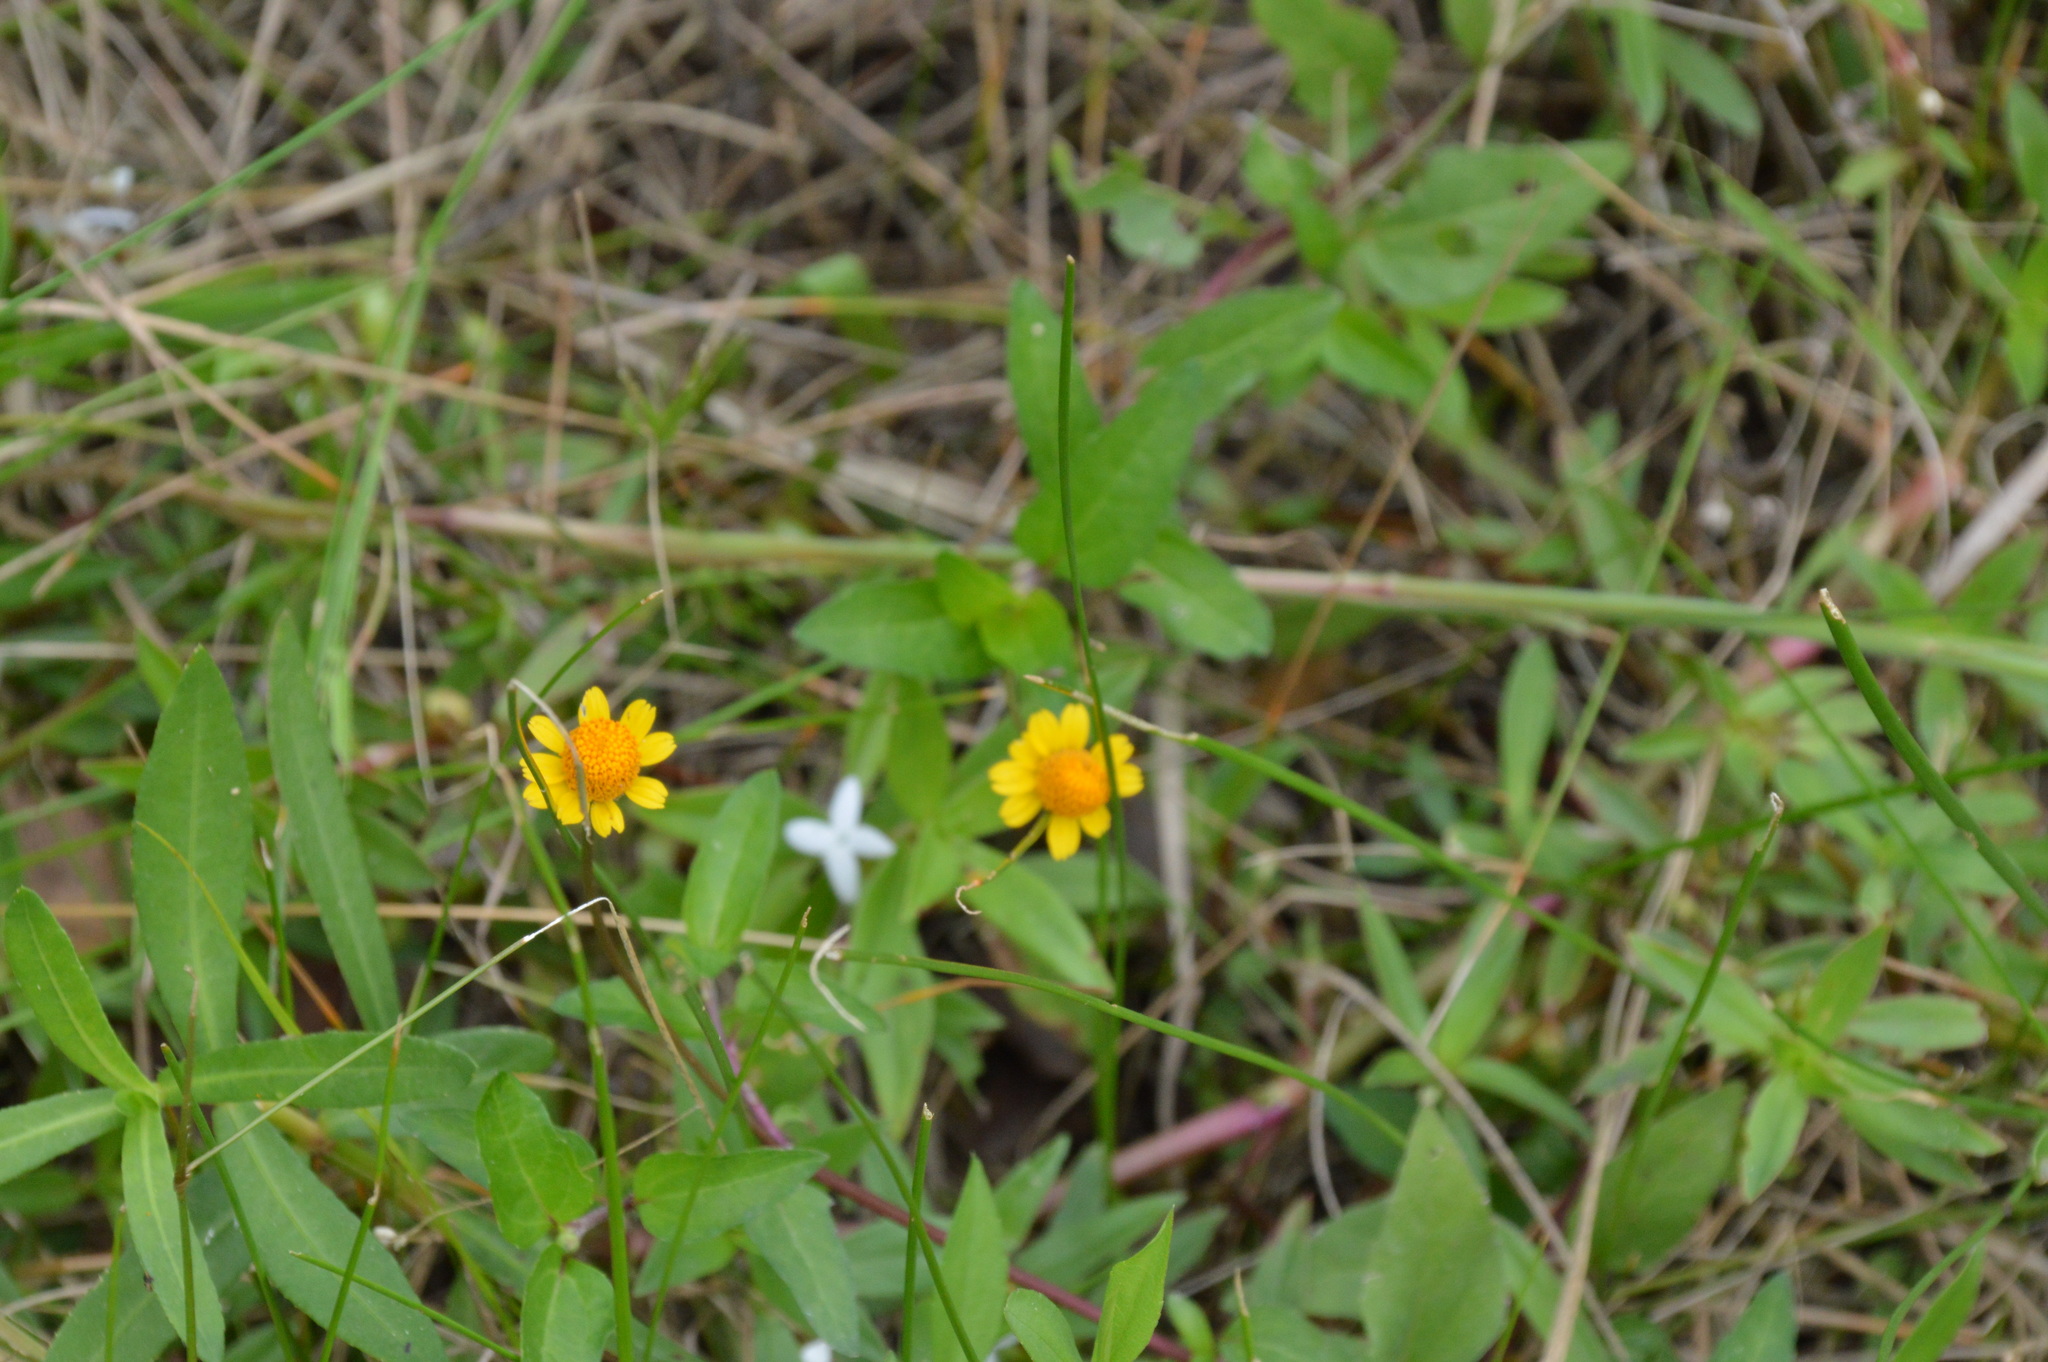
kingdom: Plantae
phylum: Tracheophyta
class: Magnoliopsida
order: Asterales
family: Asteraceae
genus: Acmella
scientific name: Acmella repens
